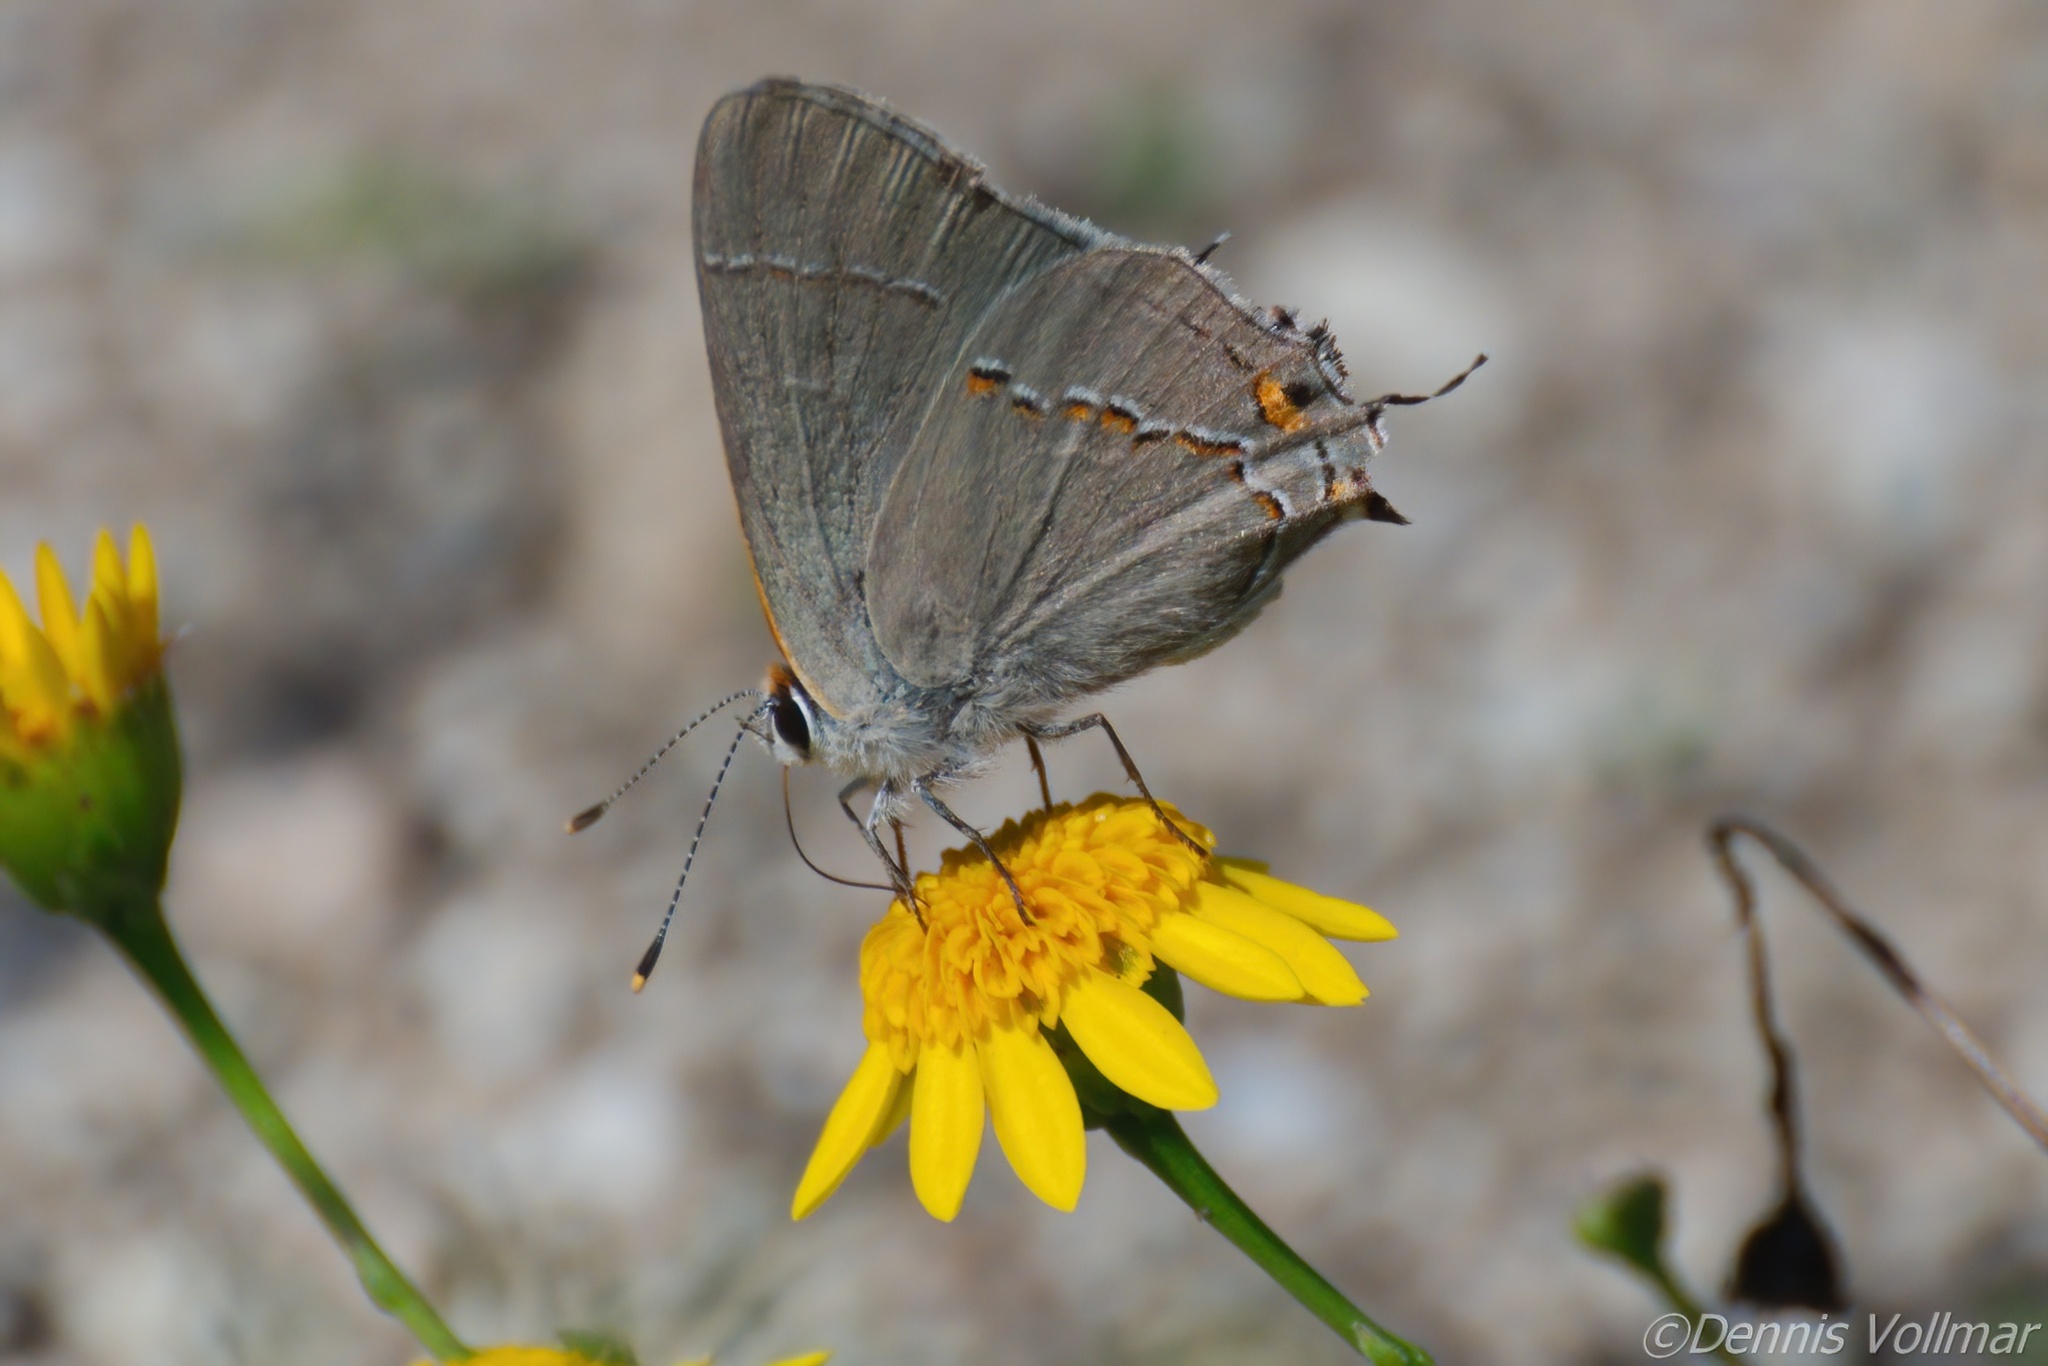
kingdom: Animalia
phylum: Arthropoda
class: Insecta
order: Lepidoptera
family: Lycaenidae
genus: Strymon
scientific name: Strymon melinus
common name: Gray hairstreak
